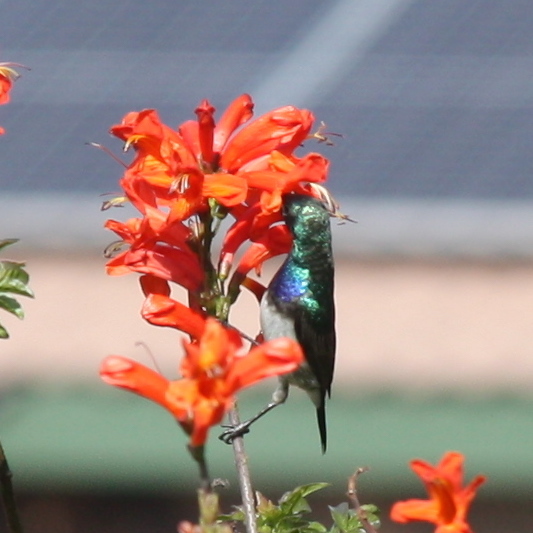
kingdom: Animalia
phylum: Chordata
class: Aves
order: Passeriformes
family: Nectariniidae
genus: Cinnyris
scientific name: Cinnyris talatala
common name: White-bellied sunbird
